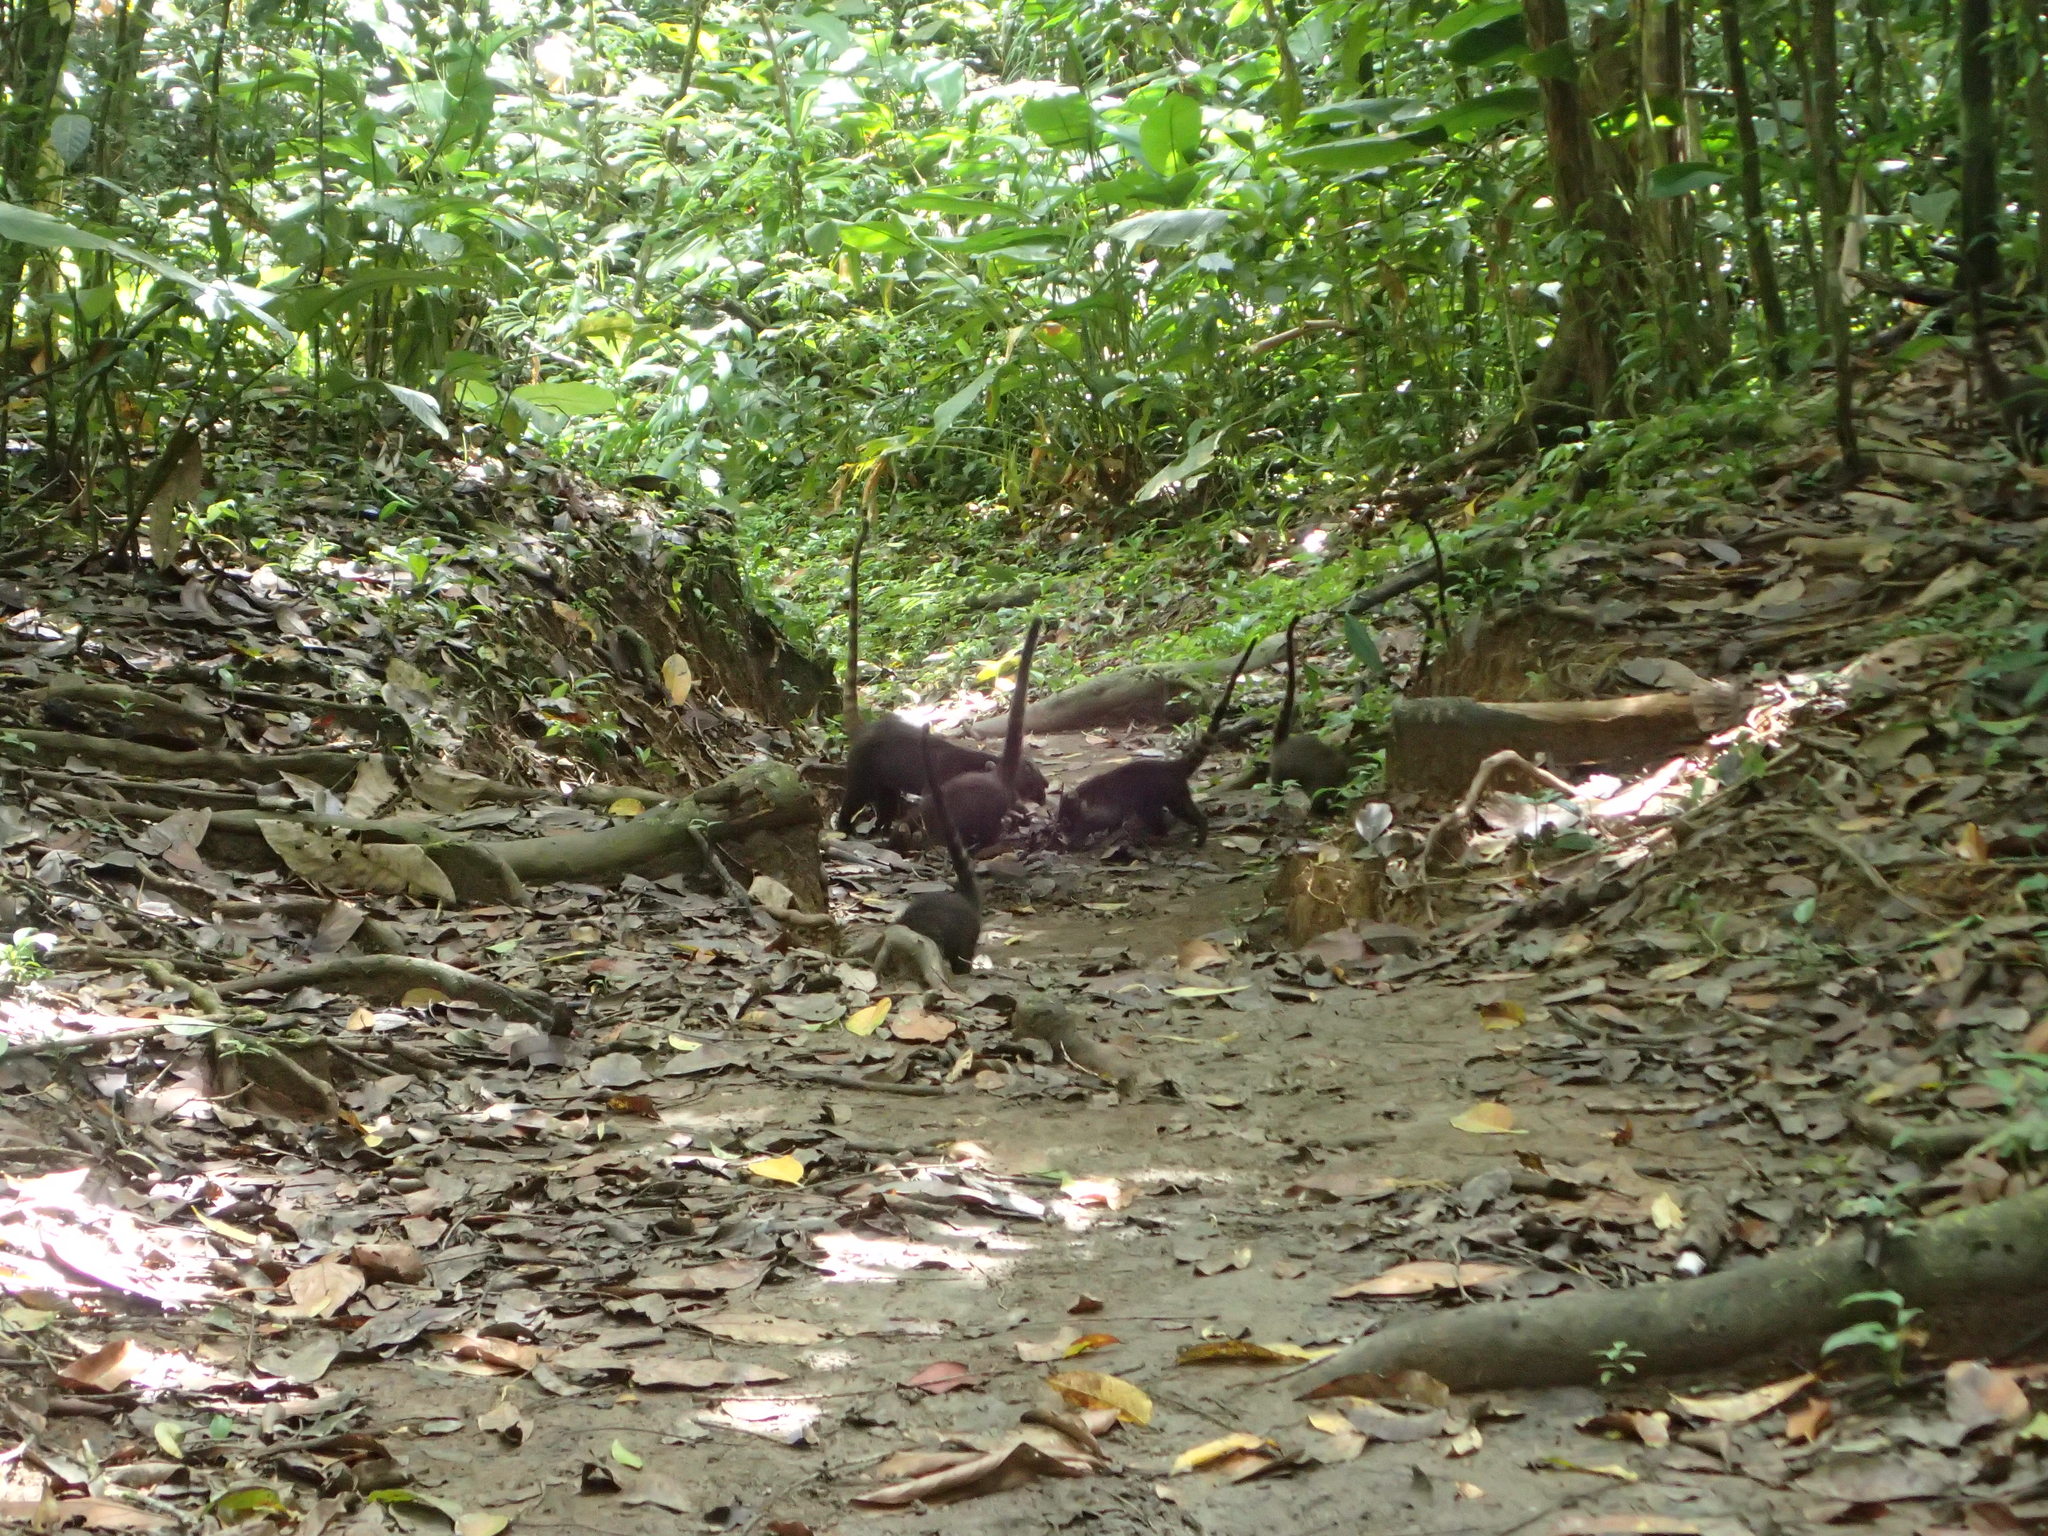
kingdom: Animalia
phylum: Chordata
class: Mammalia
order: Carnivora
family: Procyonidae
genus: Nasua
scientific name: Nasua narica
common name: White-nosed coati
